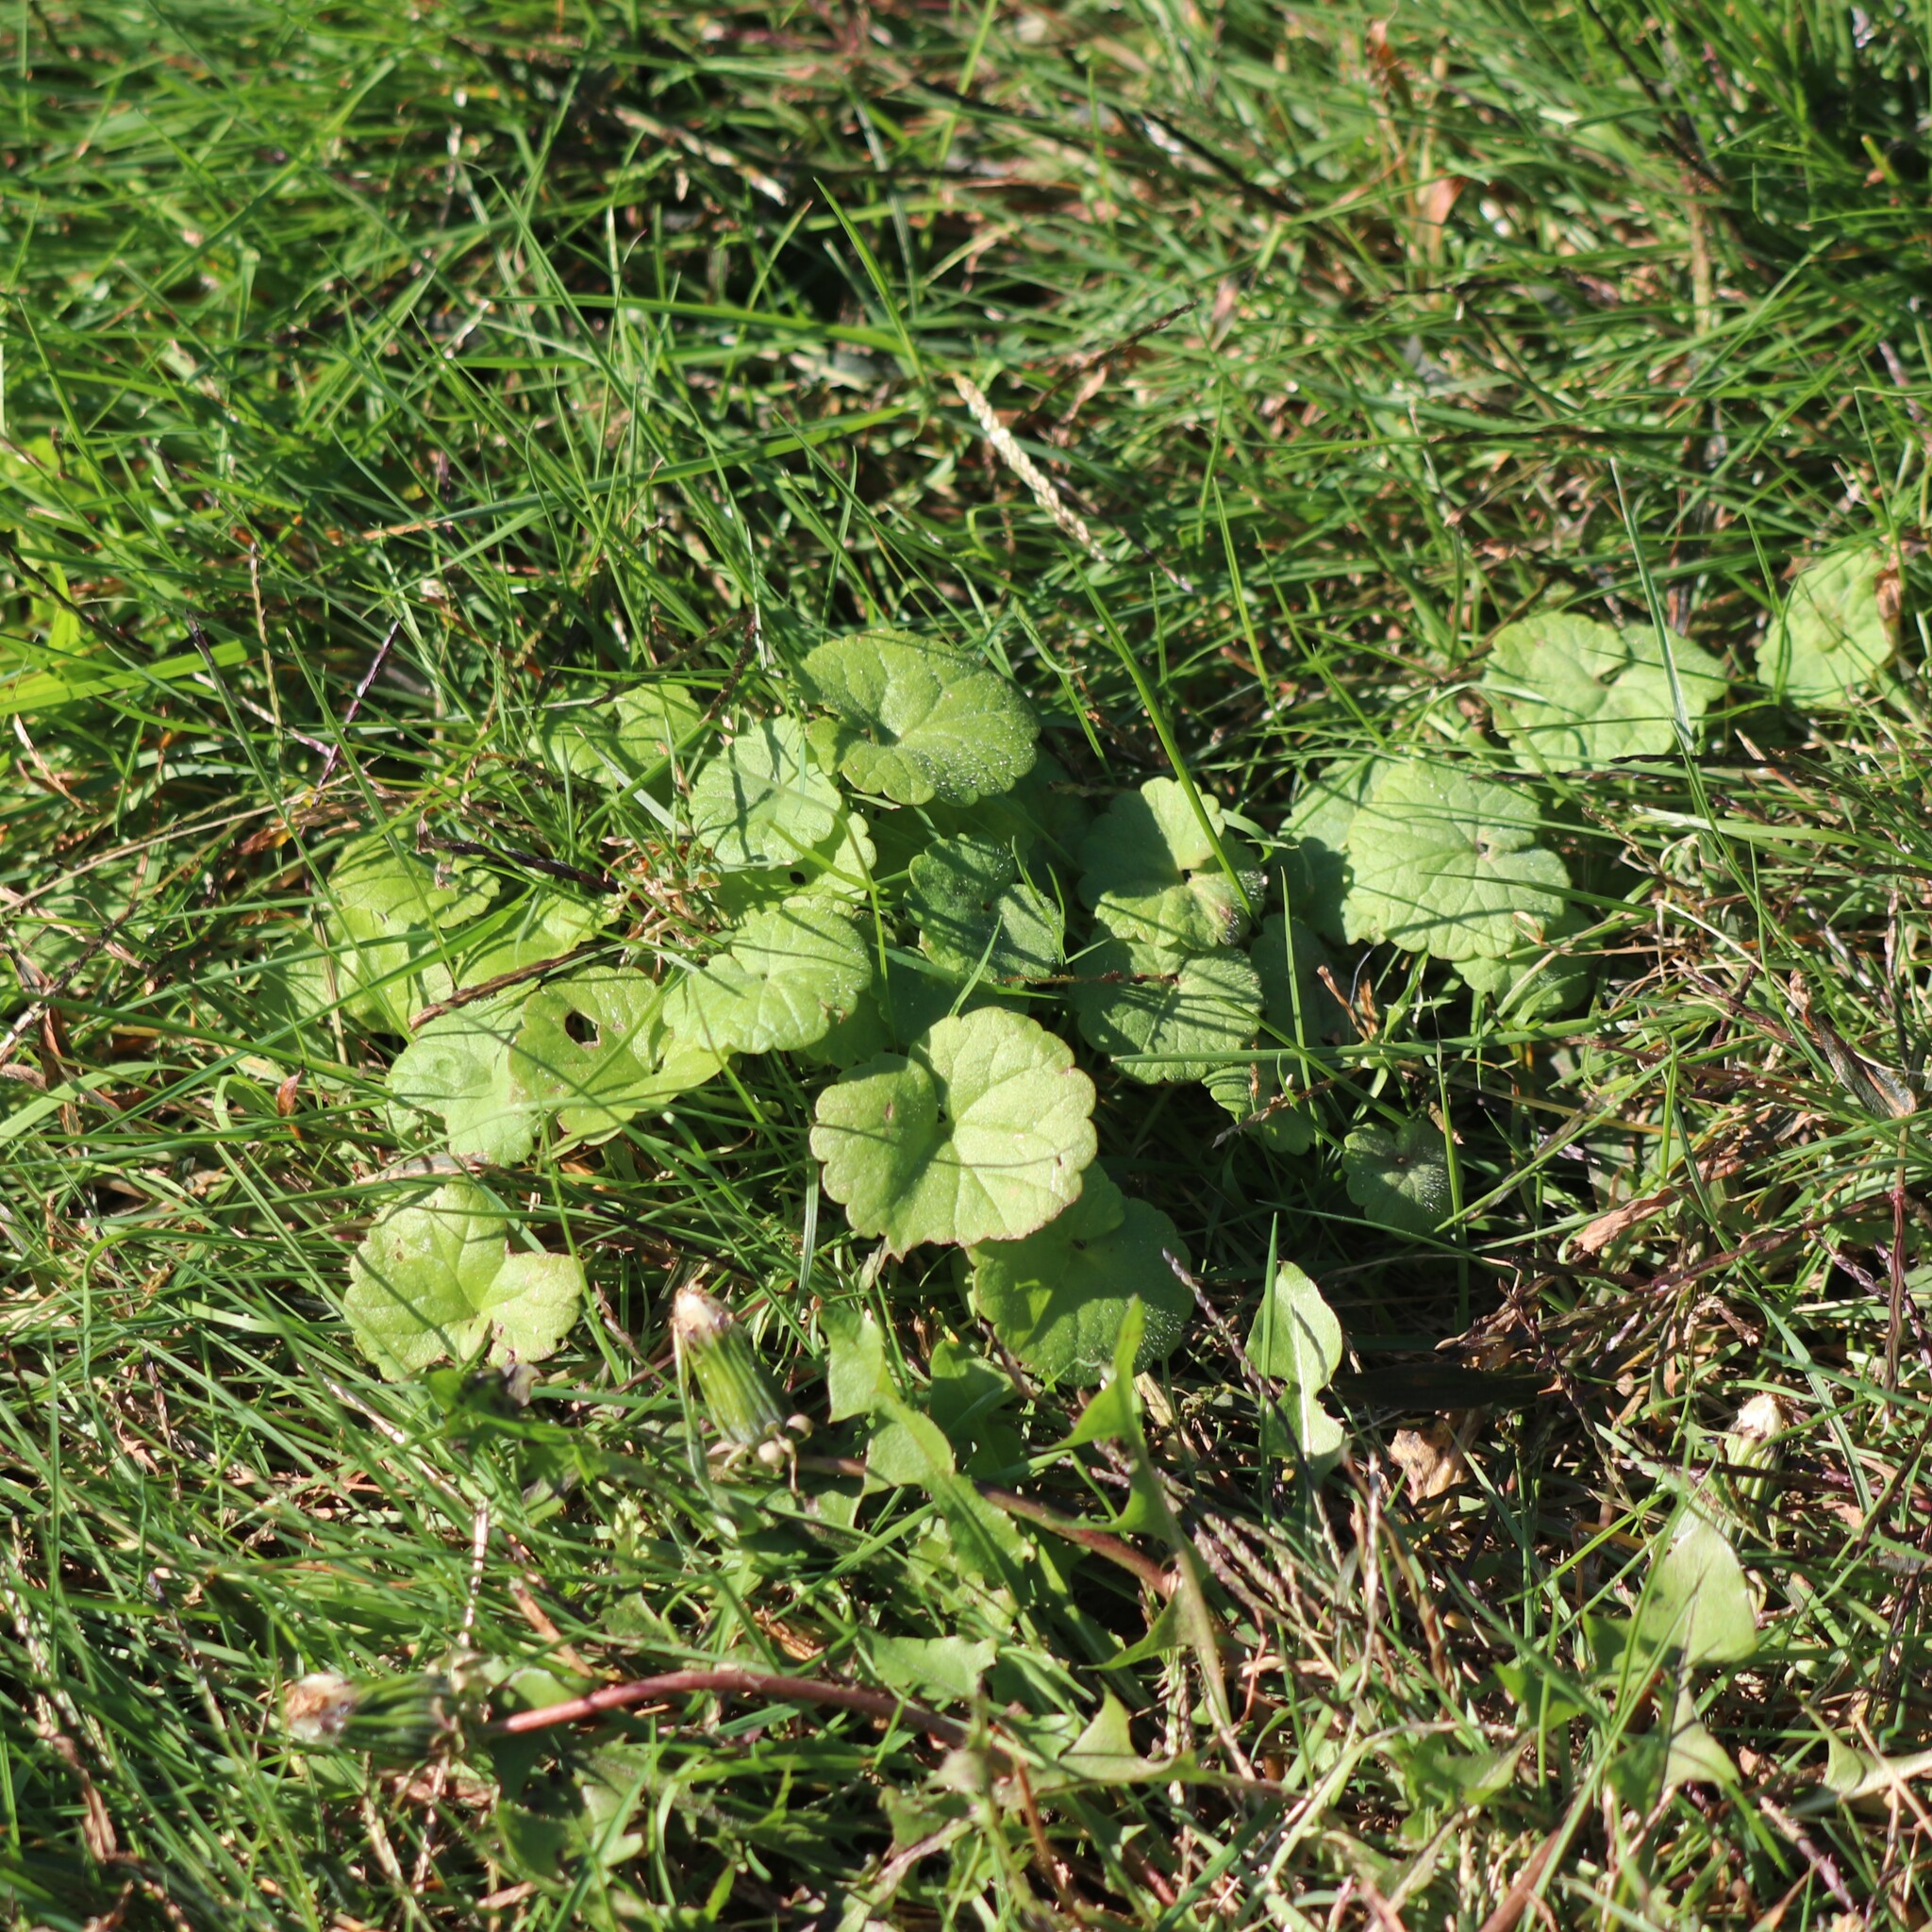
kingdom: Plantae
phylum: Tracheophyta
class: Magnoliopsida
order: Lamiales
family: Lamiaceae
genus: Glechoma
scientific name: Glechoma hederacea
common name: Ground ivy
